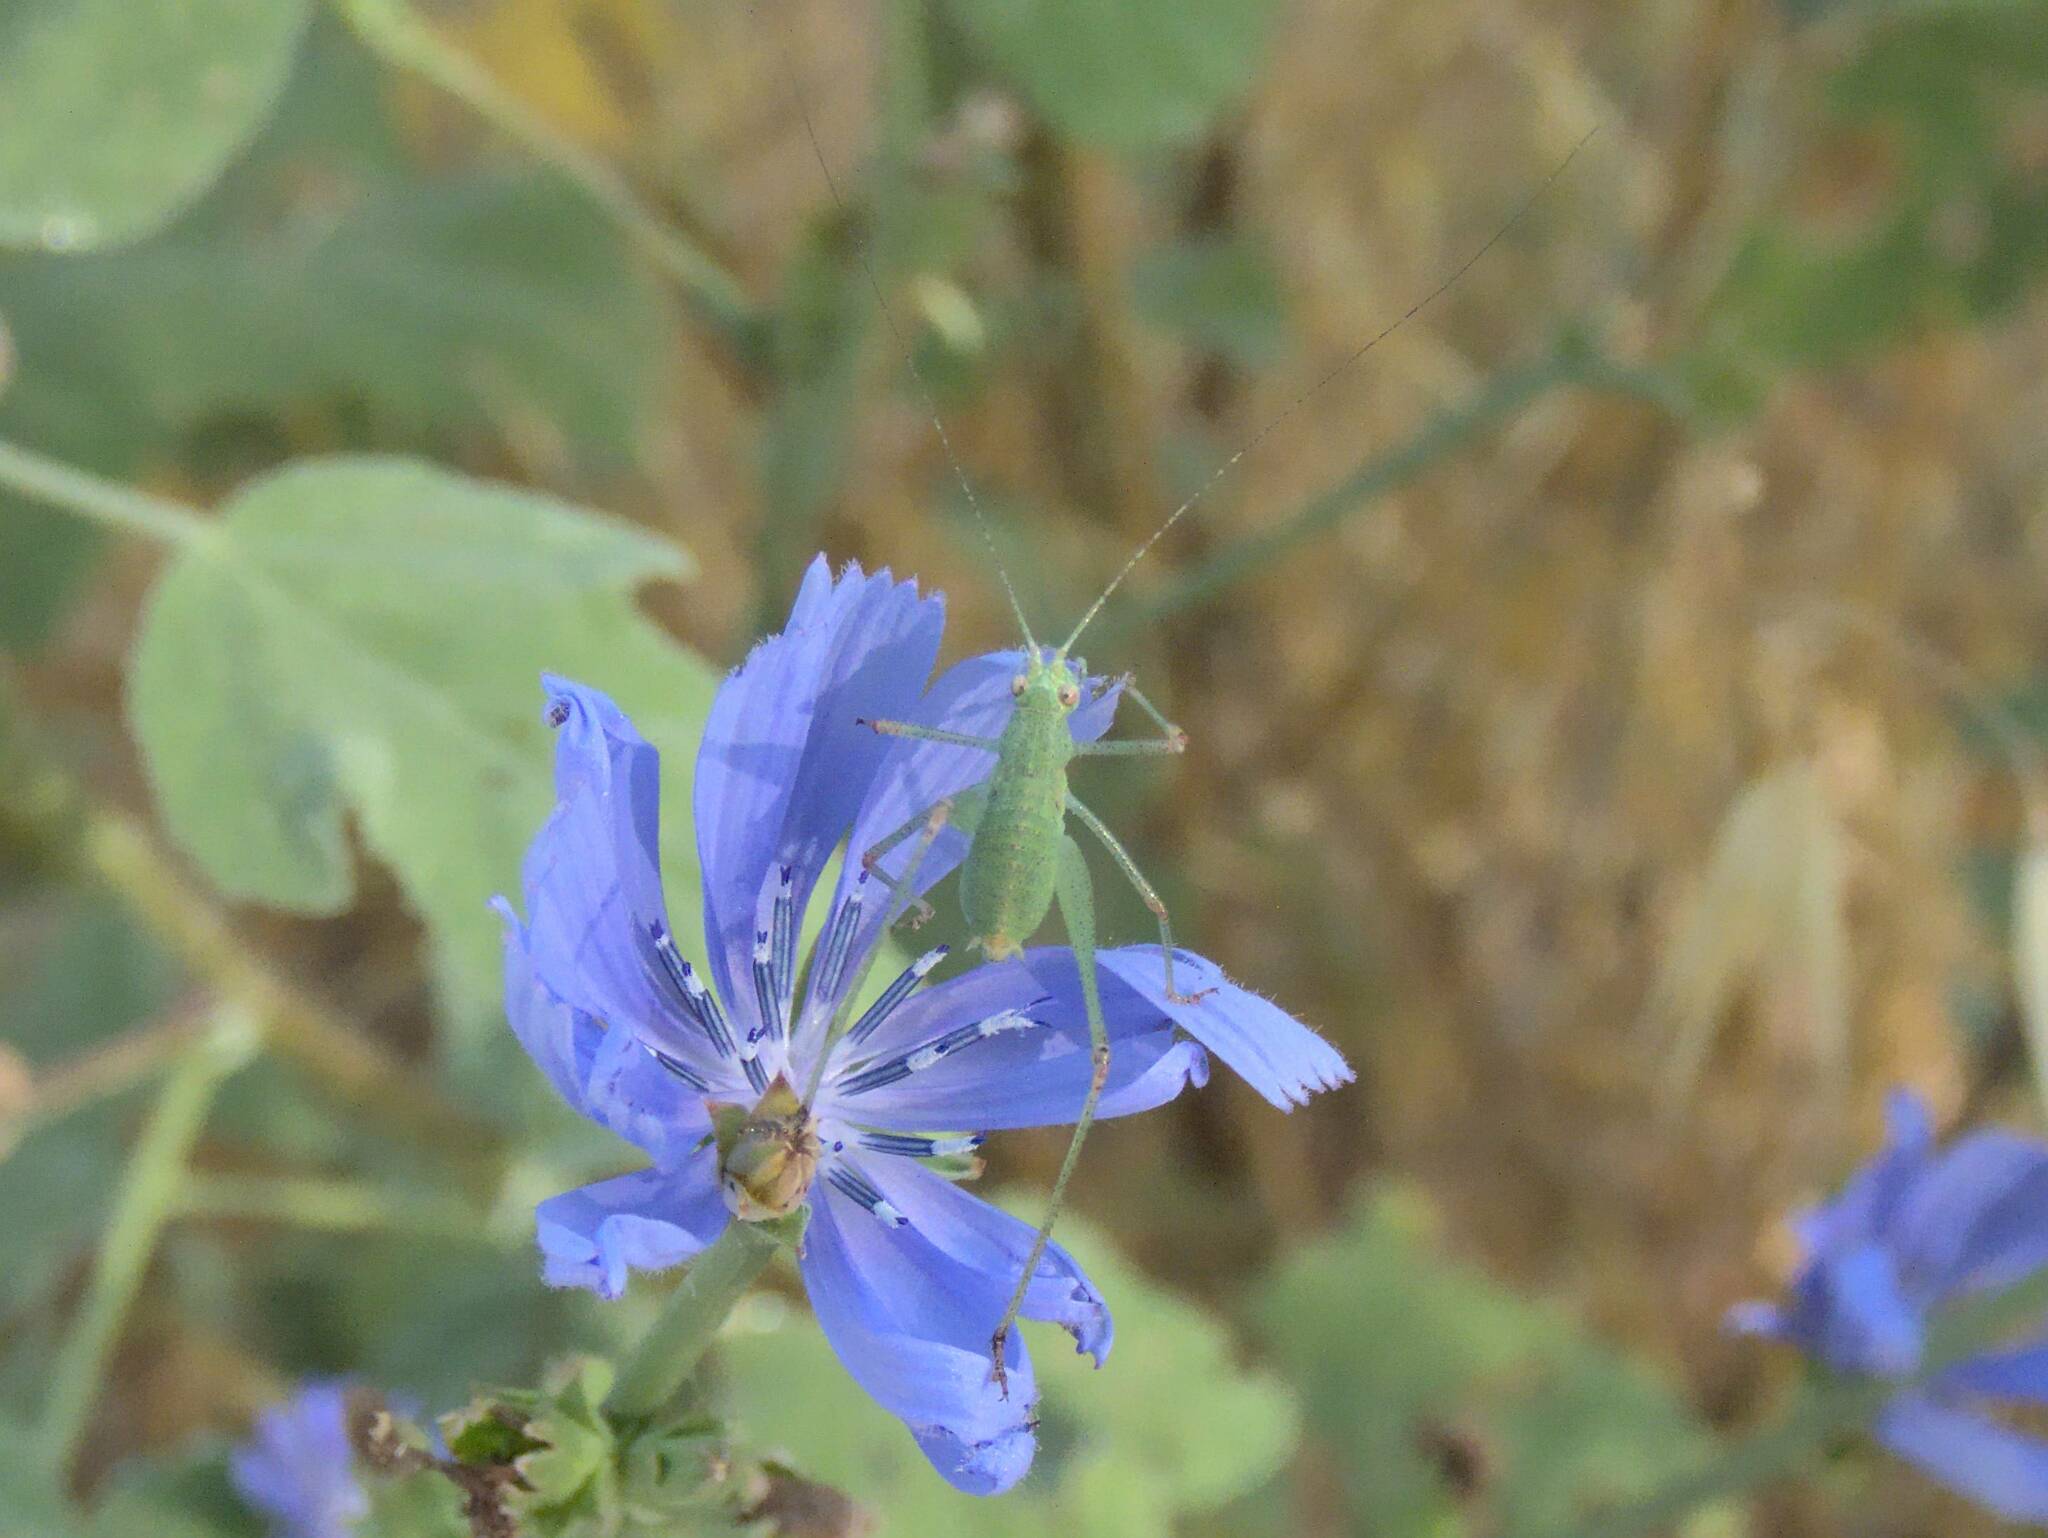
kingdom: Animalia
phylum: Arthropoda
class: Insecta
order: Orthoptera
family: Tettigoniidae
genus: Phaneroptera
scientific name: Phaneroptera nana
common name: Southern sickle bush-cricket
